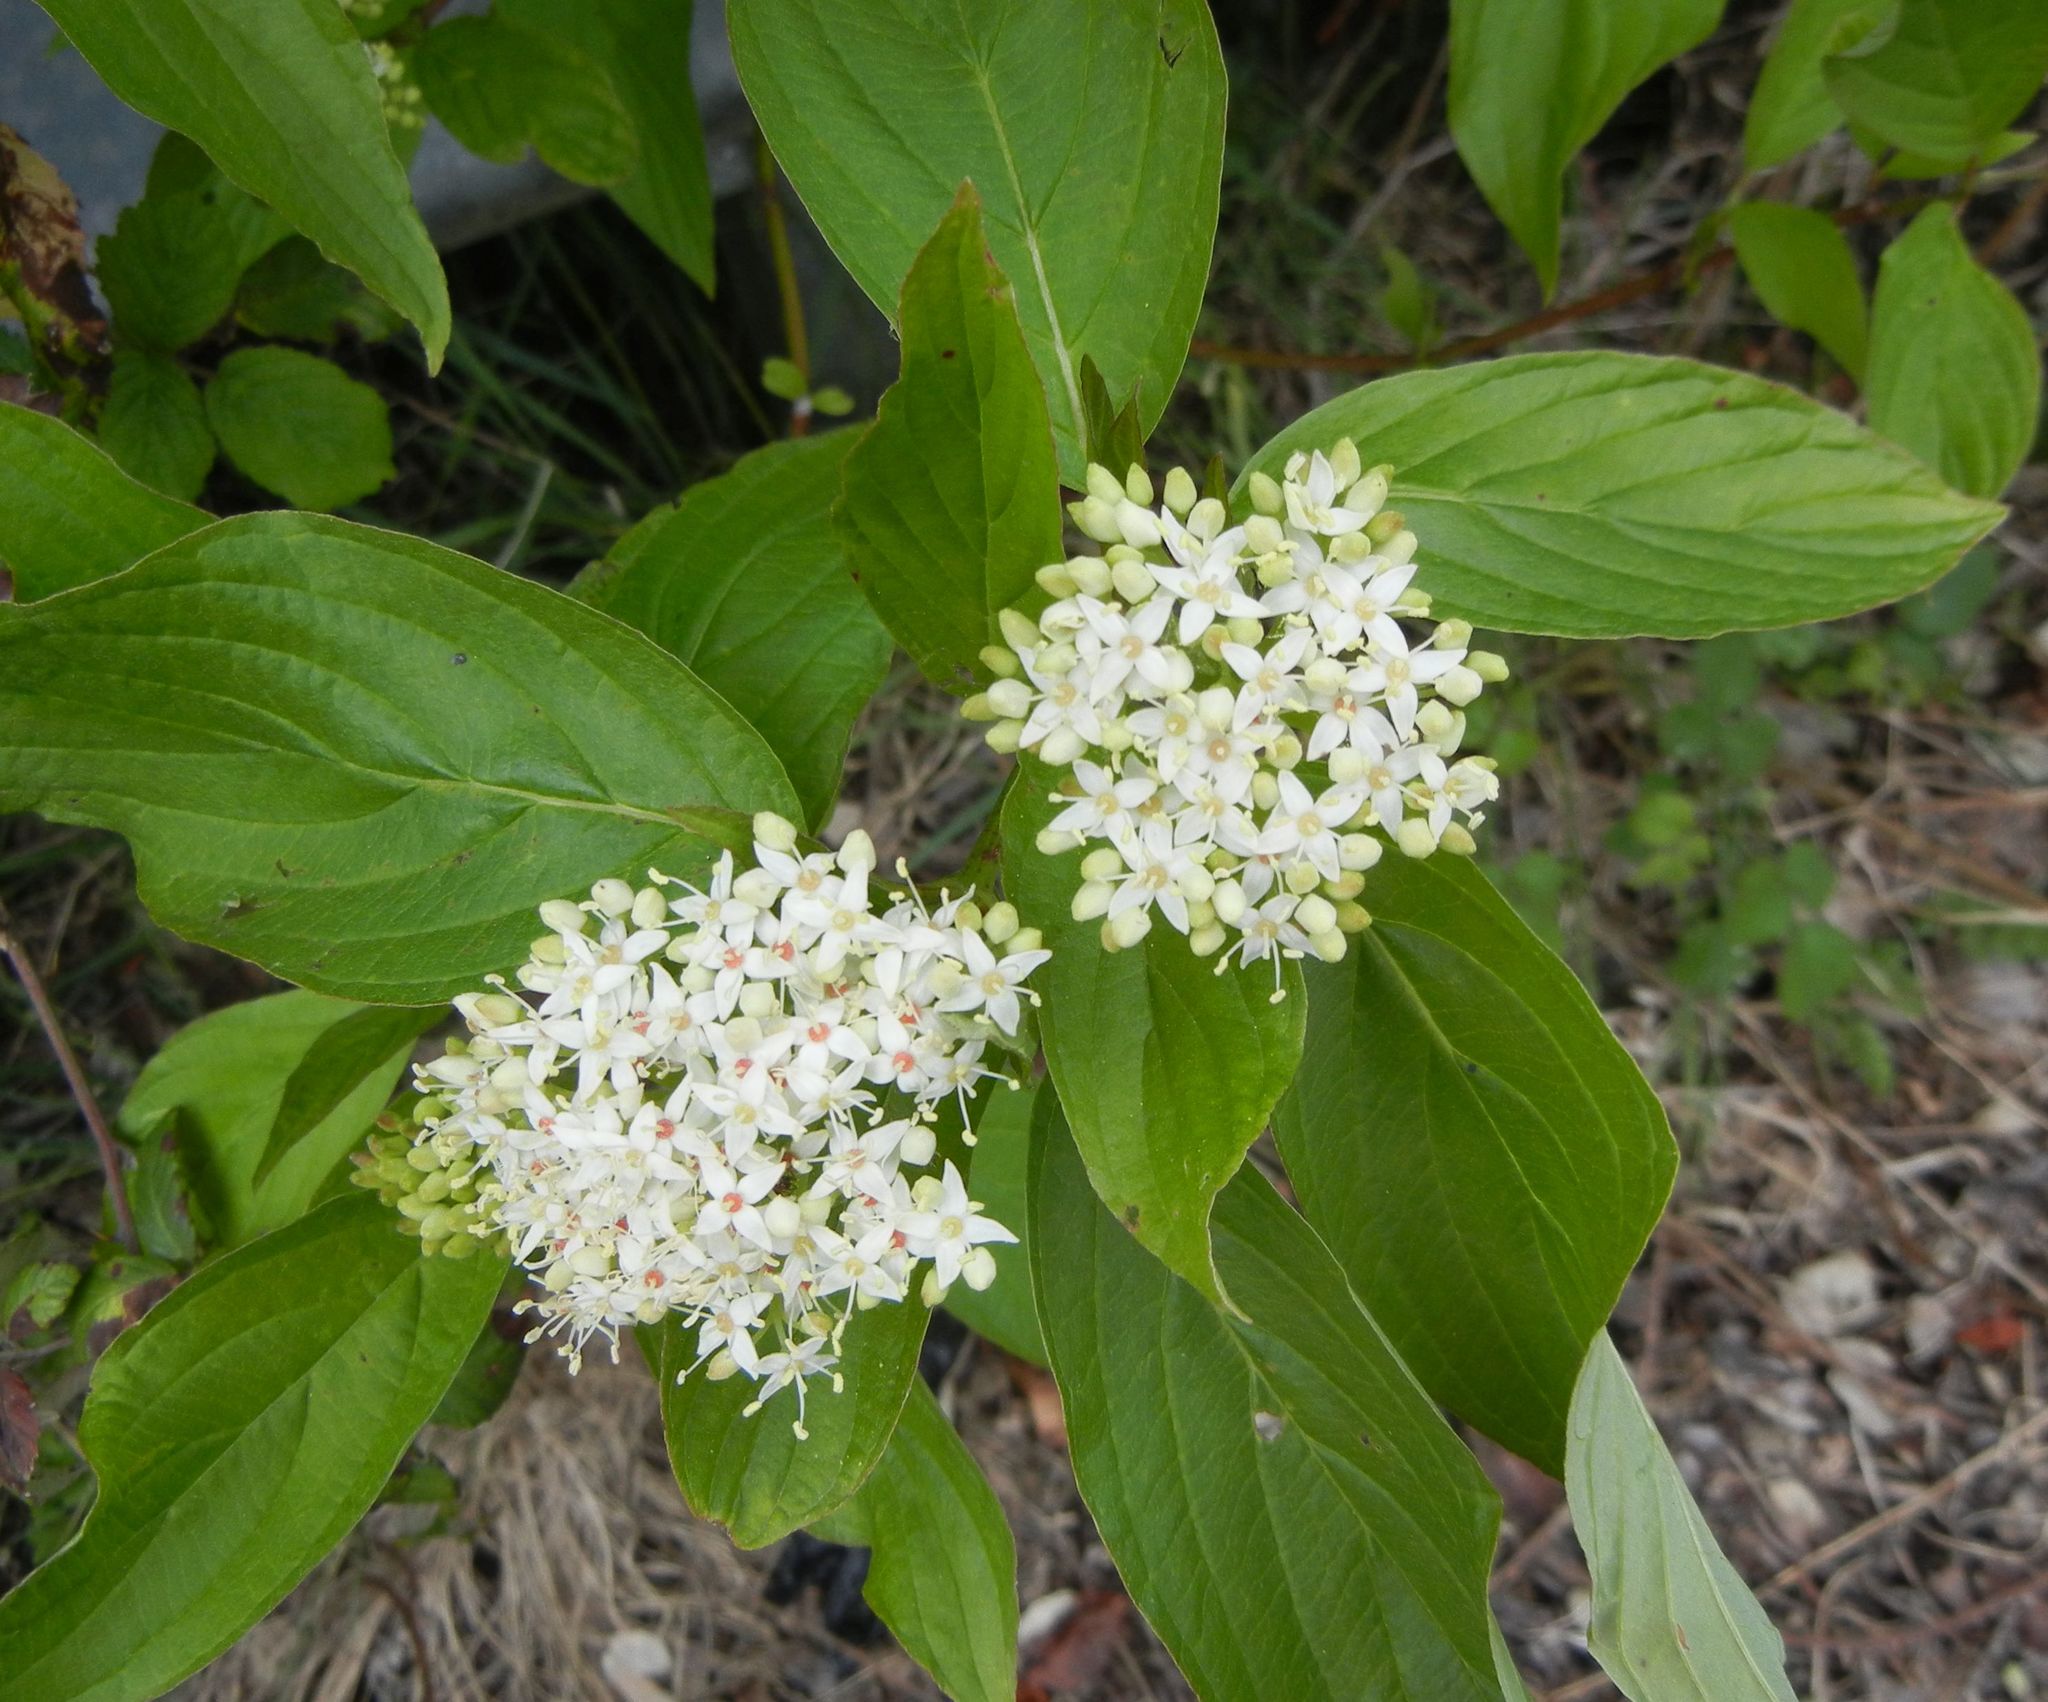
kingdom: Plantae
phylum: Tracheophyta
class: Magnoliopsida
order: Cornales
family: Cornaceae
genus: Cornus
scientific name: Cornus sanguinea
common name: Dogwood
